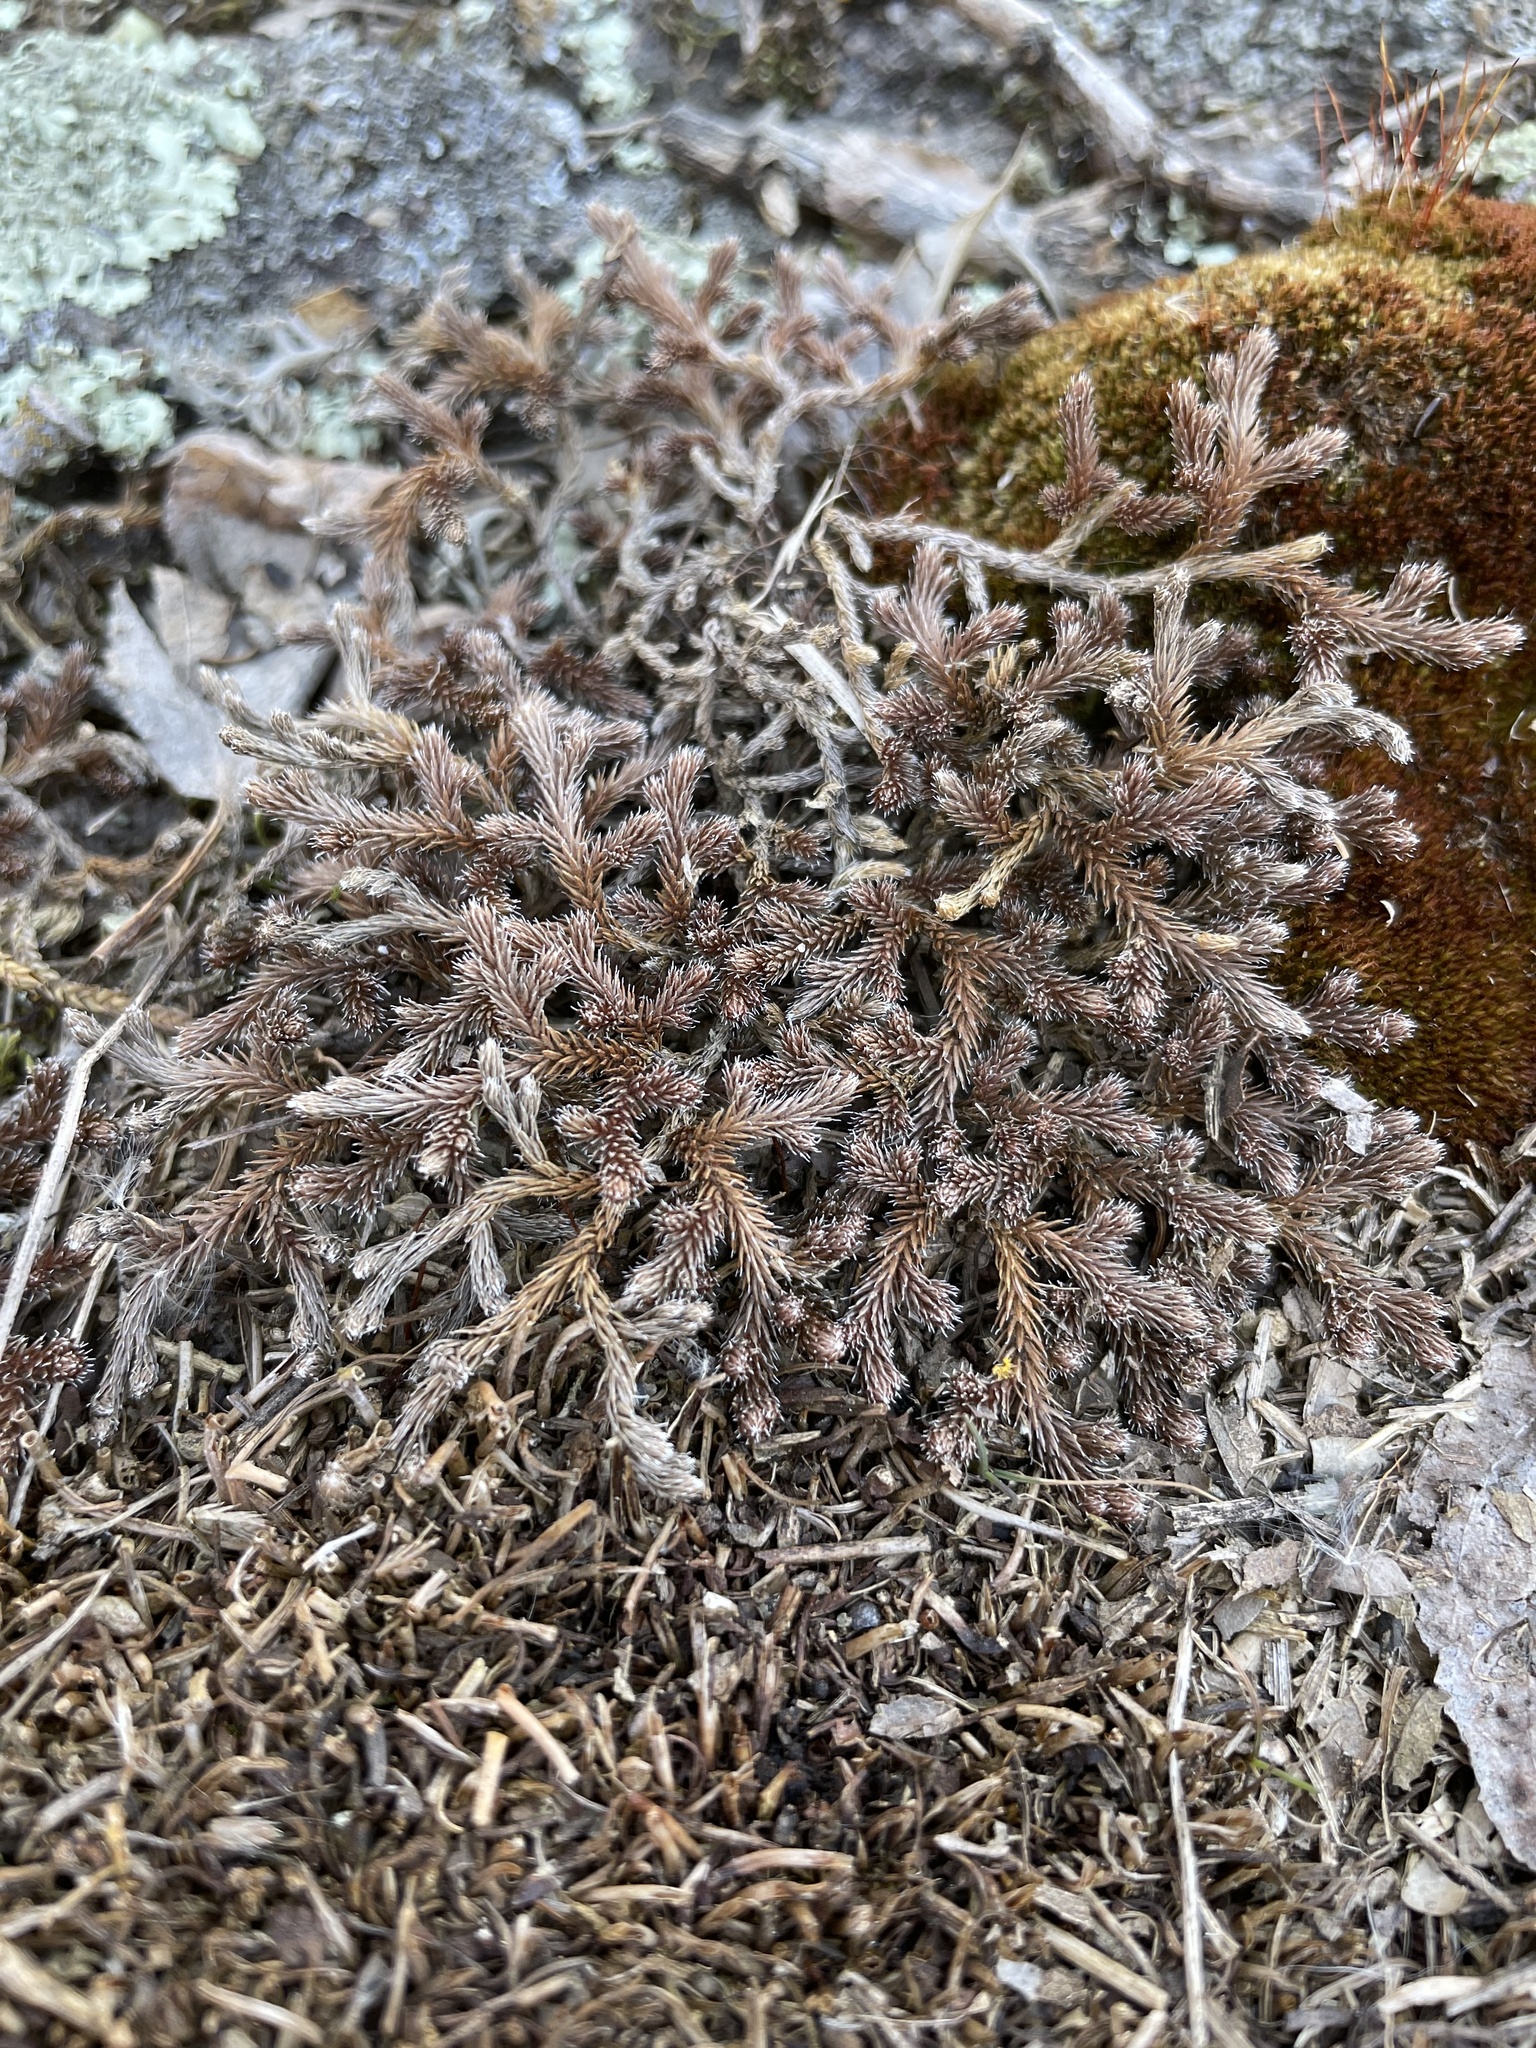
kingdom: Plantae
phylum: Tracheophyta
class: Lycopodiopsida
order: Selaginellales
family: Selaginellaceae
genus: Selaginella
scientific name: Selaginella rupestris
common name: Dwarf spikemoss
